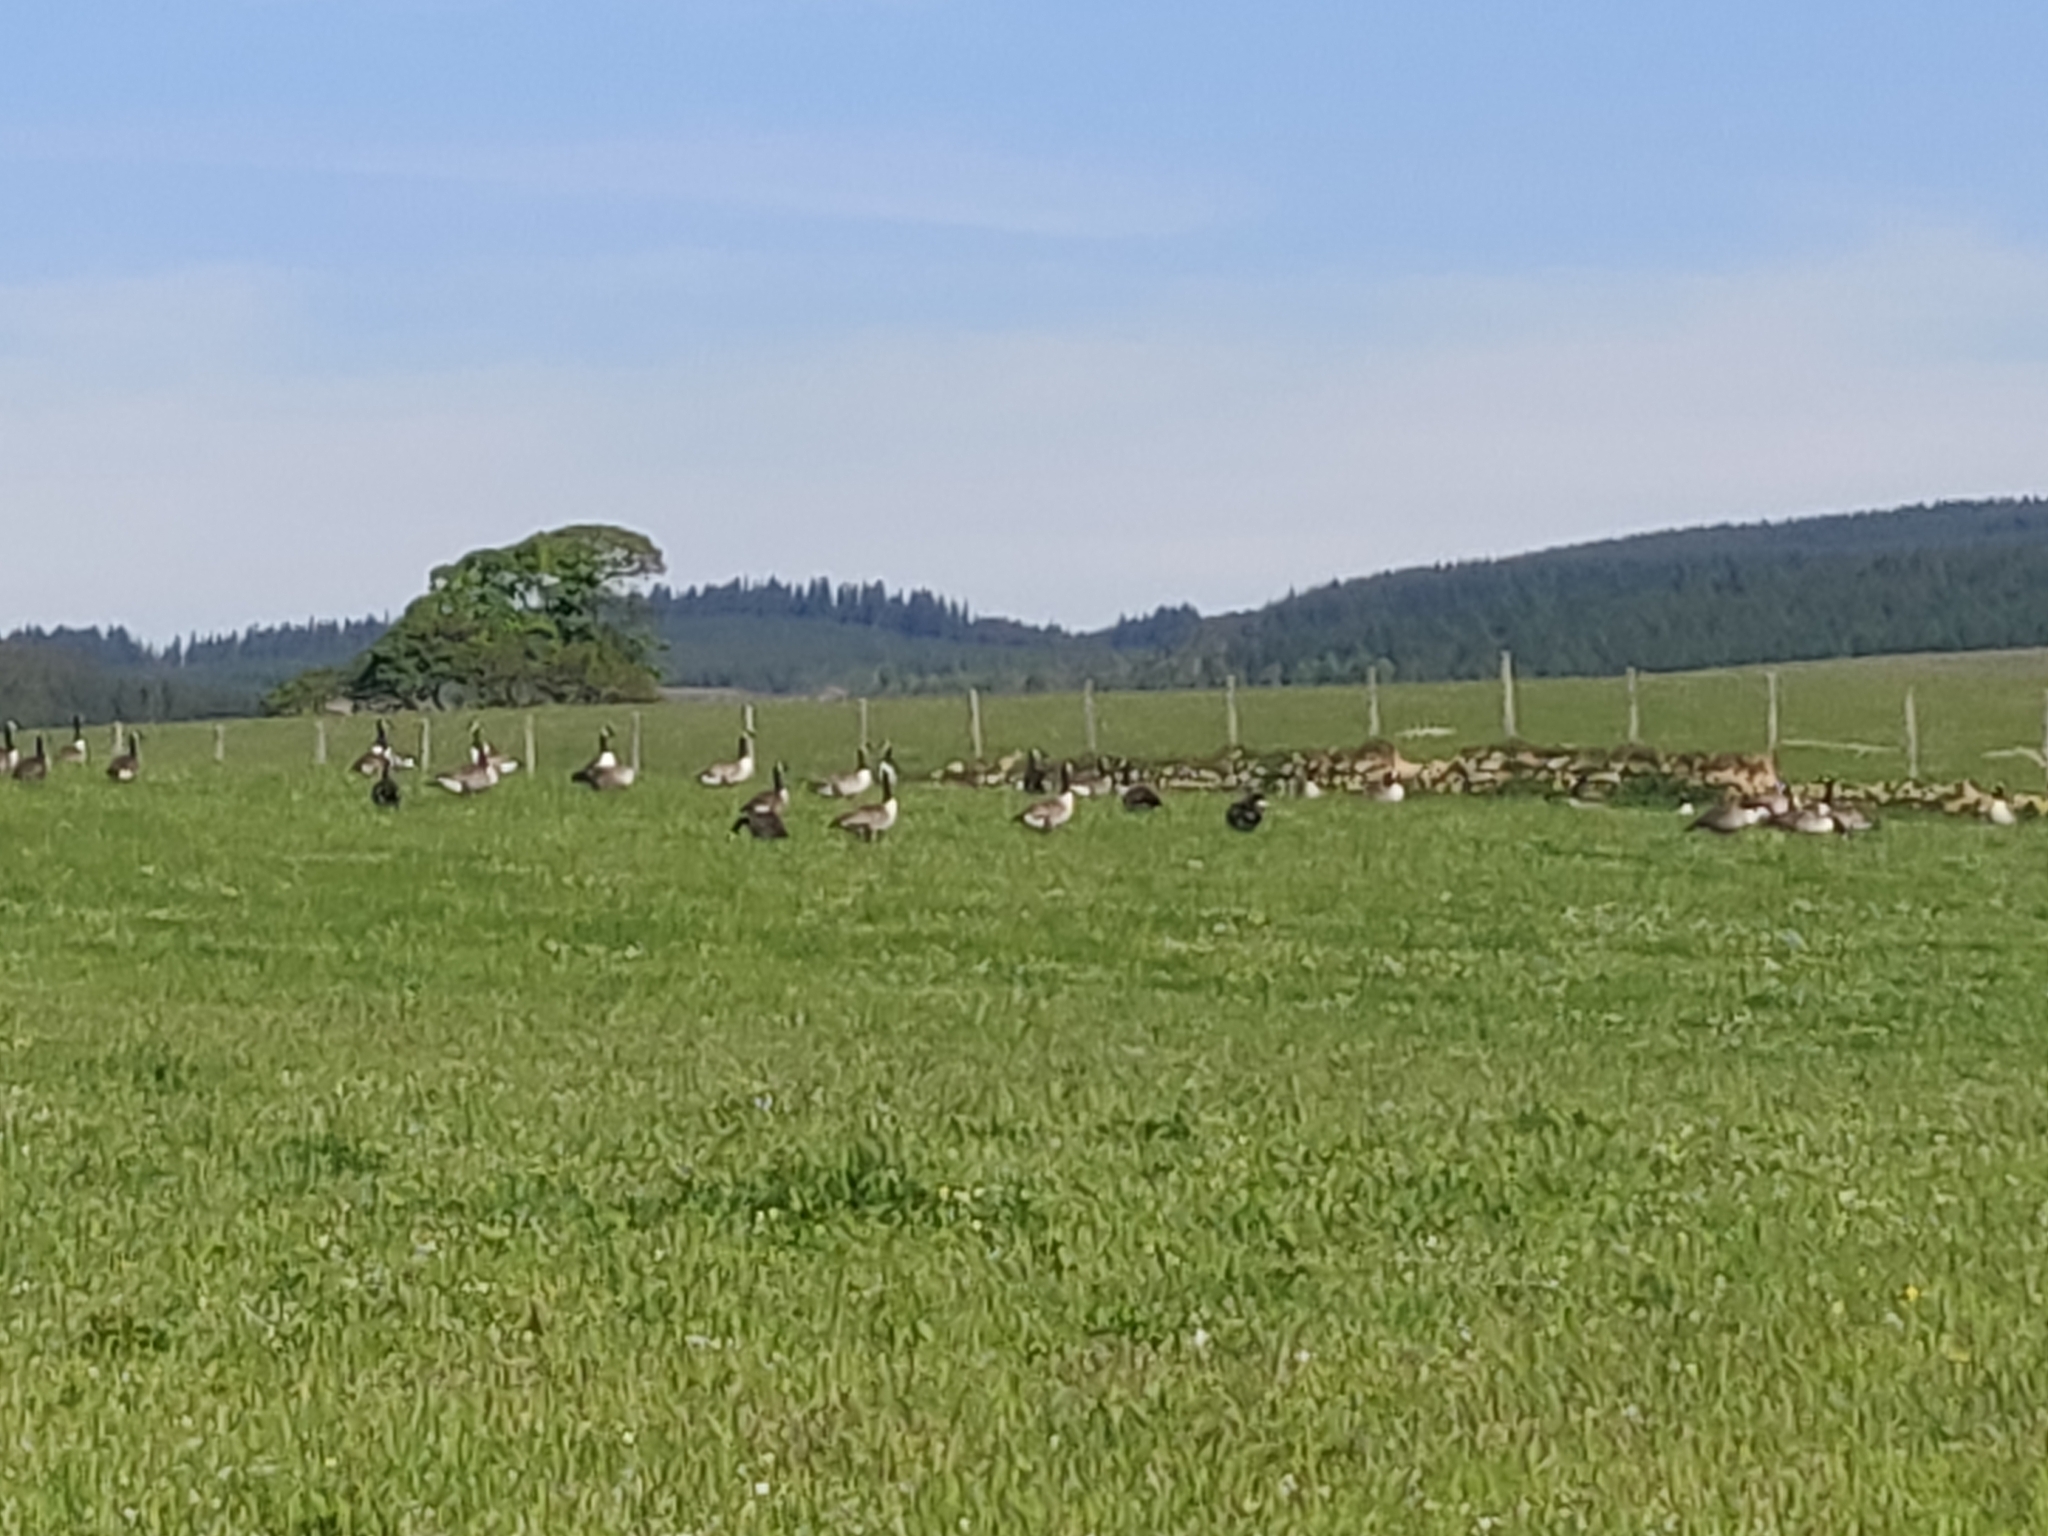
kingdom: Animalia
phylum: Chordata
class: Aves
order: Anseriformes
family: Anatidae
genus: Branta
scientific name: Branta canadensis
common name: Canada goose
